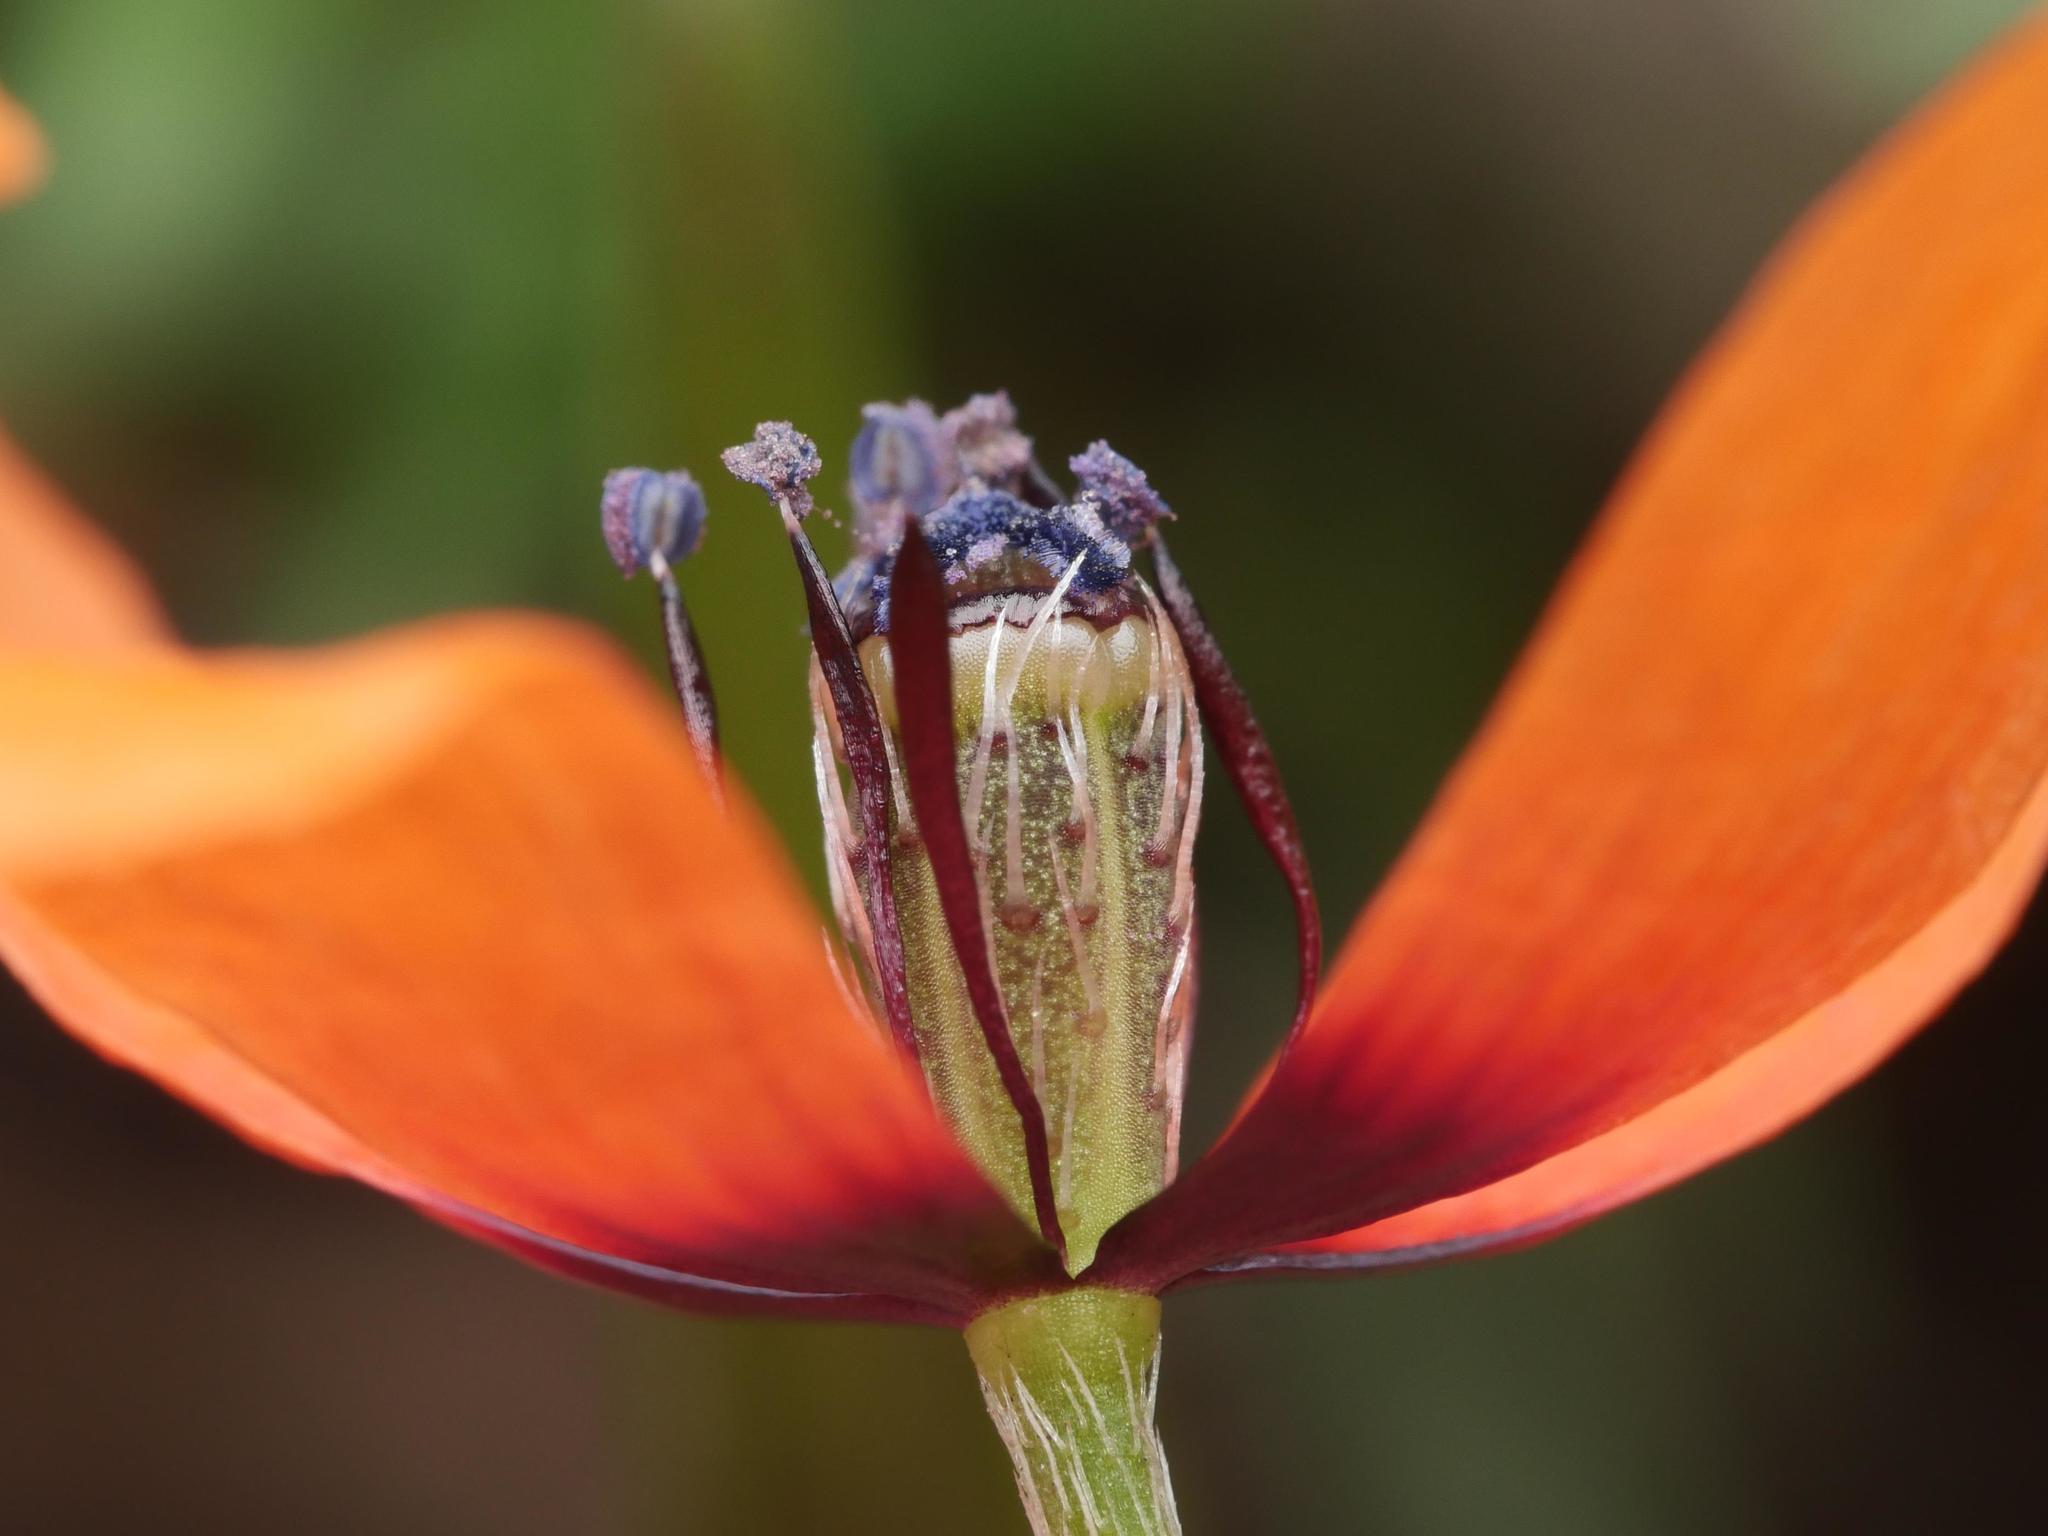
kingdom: Plantae
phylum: Tracheophyta
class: Magnoliopsida
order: Ranunculales
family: Papaveraceae
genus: Roemeria
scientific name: Roemeria argemone
